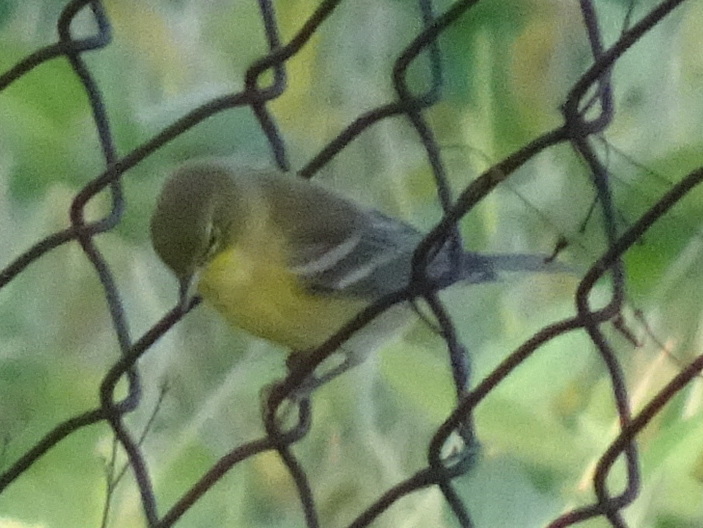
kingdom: Animalia
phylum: Chordata
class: Aves
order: Passeriformes
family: Parulidae
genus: Setophaga
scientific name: Setophaga pinus
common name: Pine warbler
